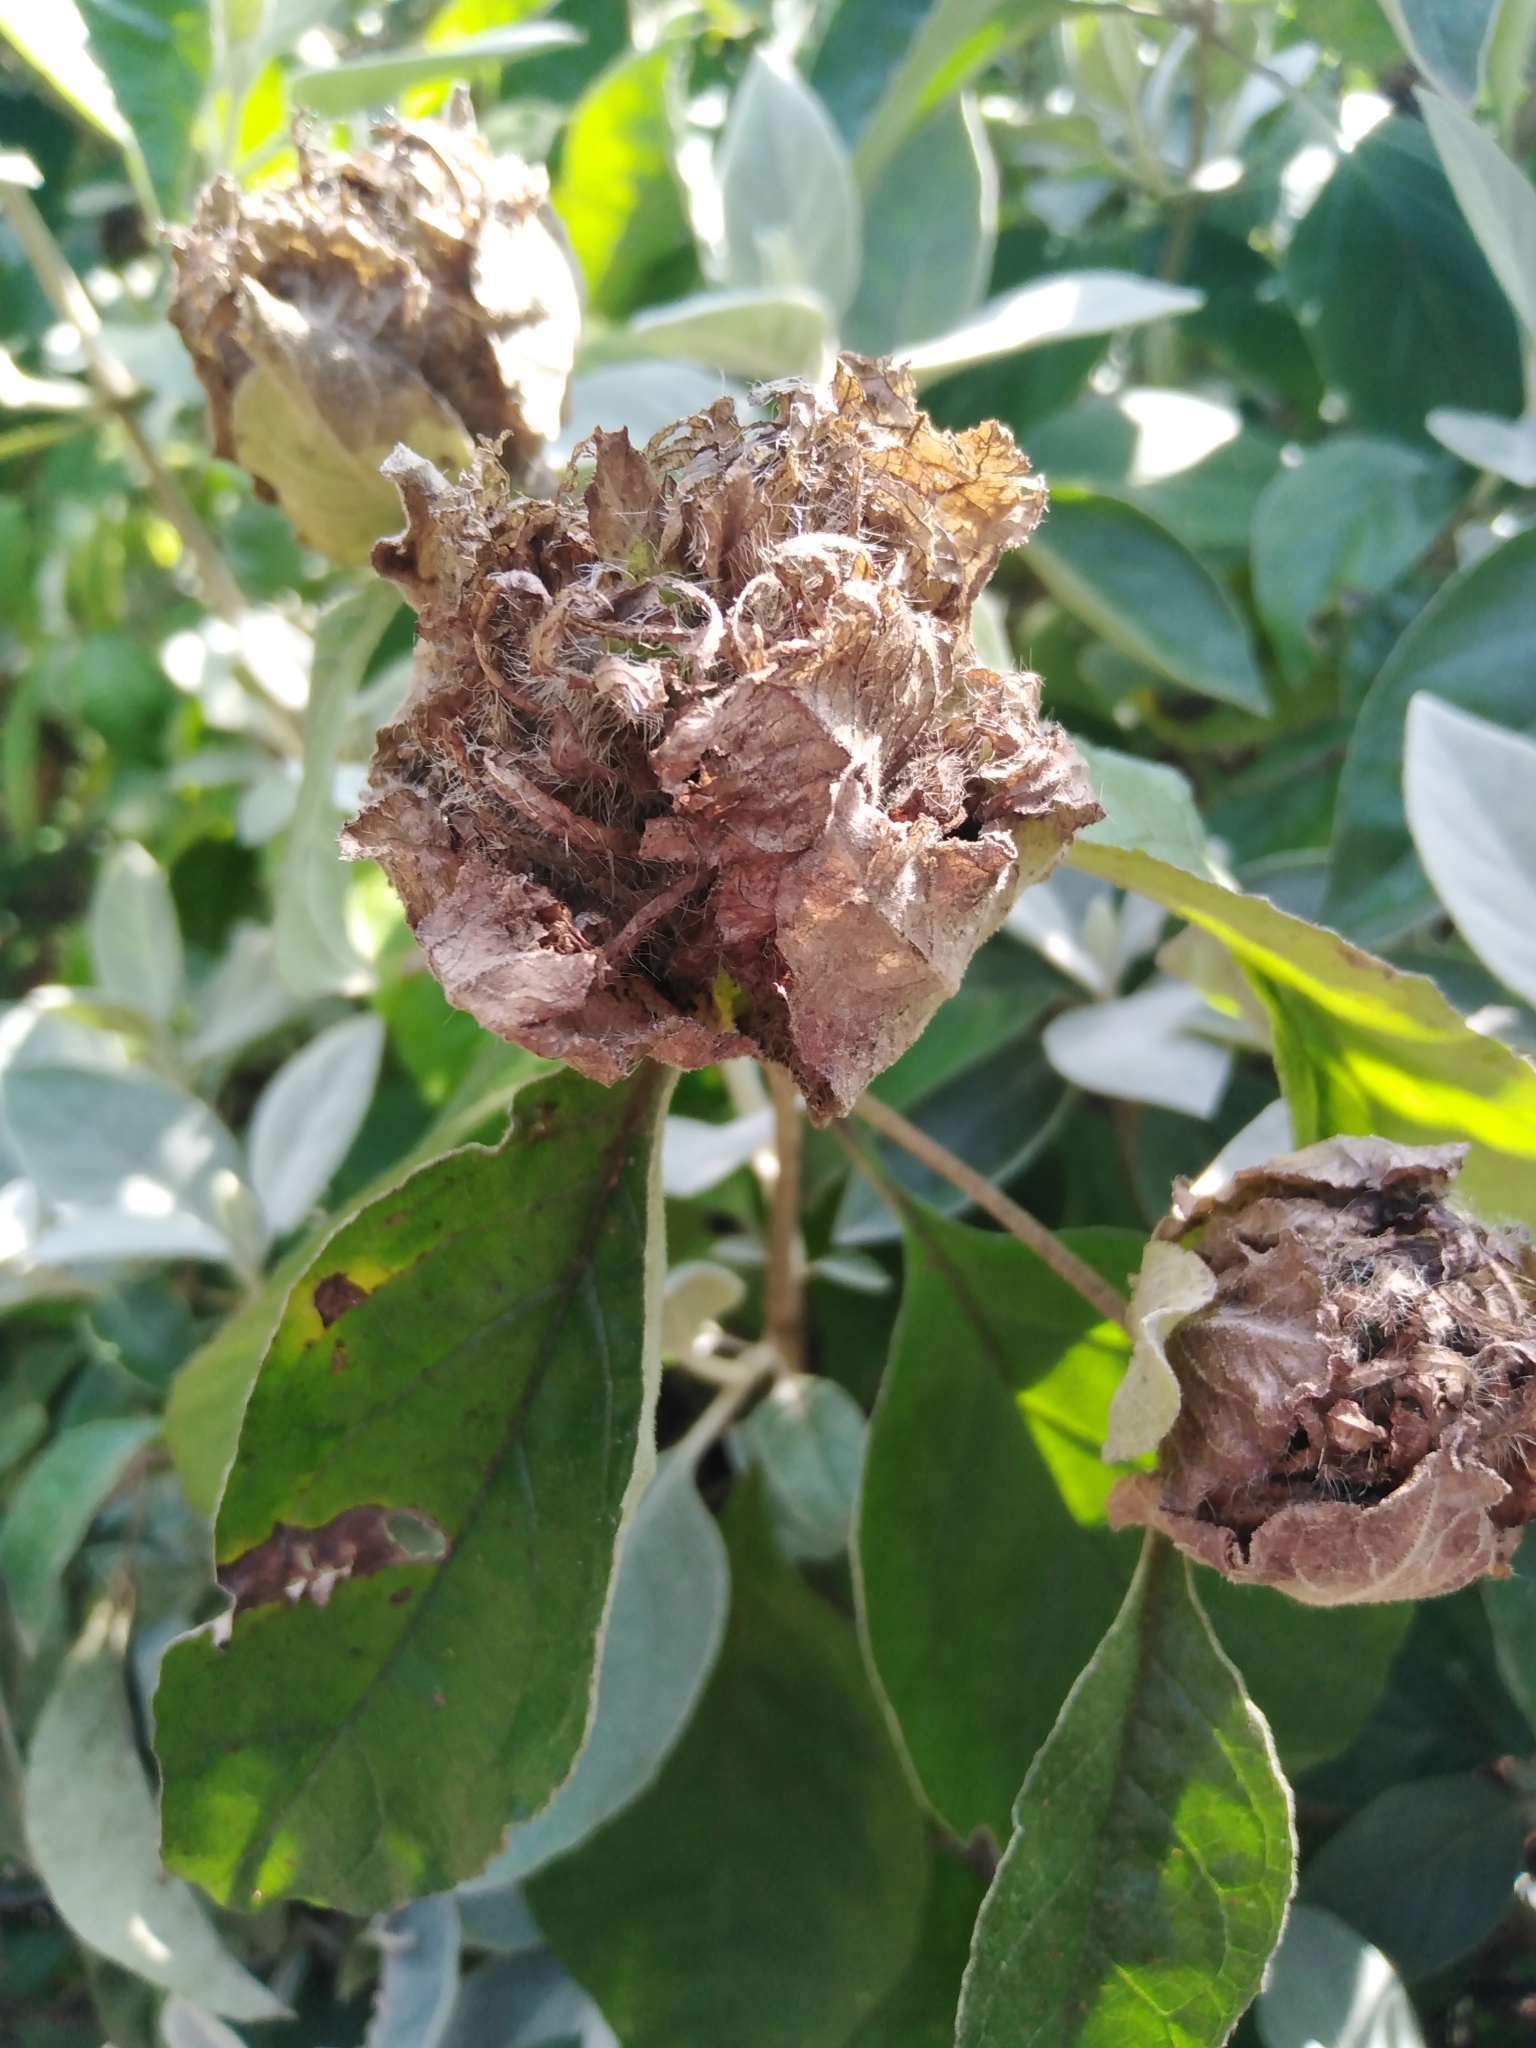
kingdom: Plantae
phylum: Tracheophyta
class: Magnoliopsida
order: Lamiales
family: Acanthaceae
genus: Barleria
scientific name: Barleria albostellata
